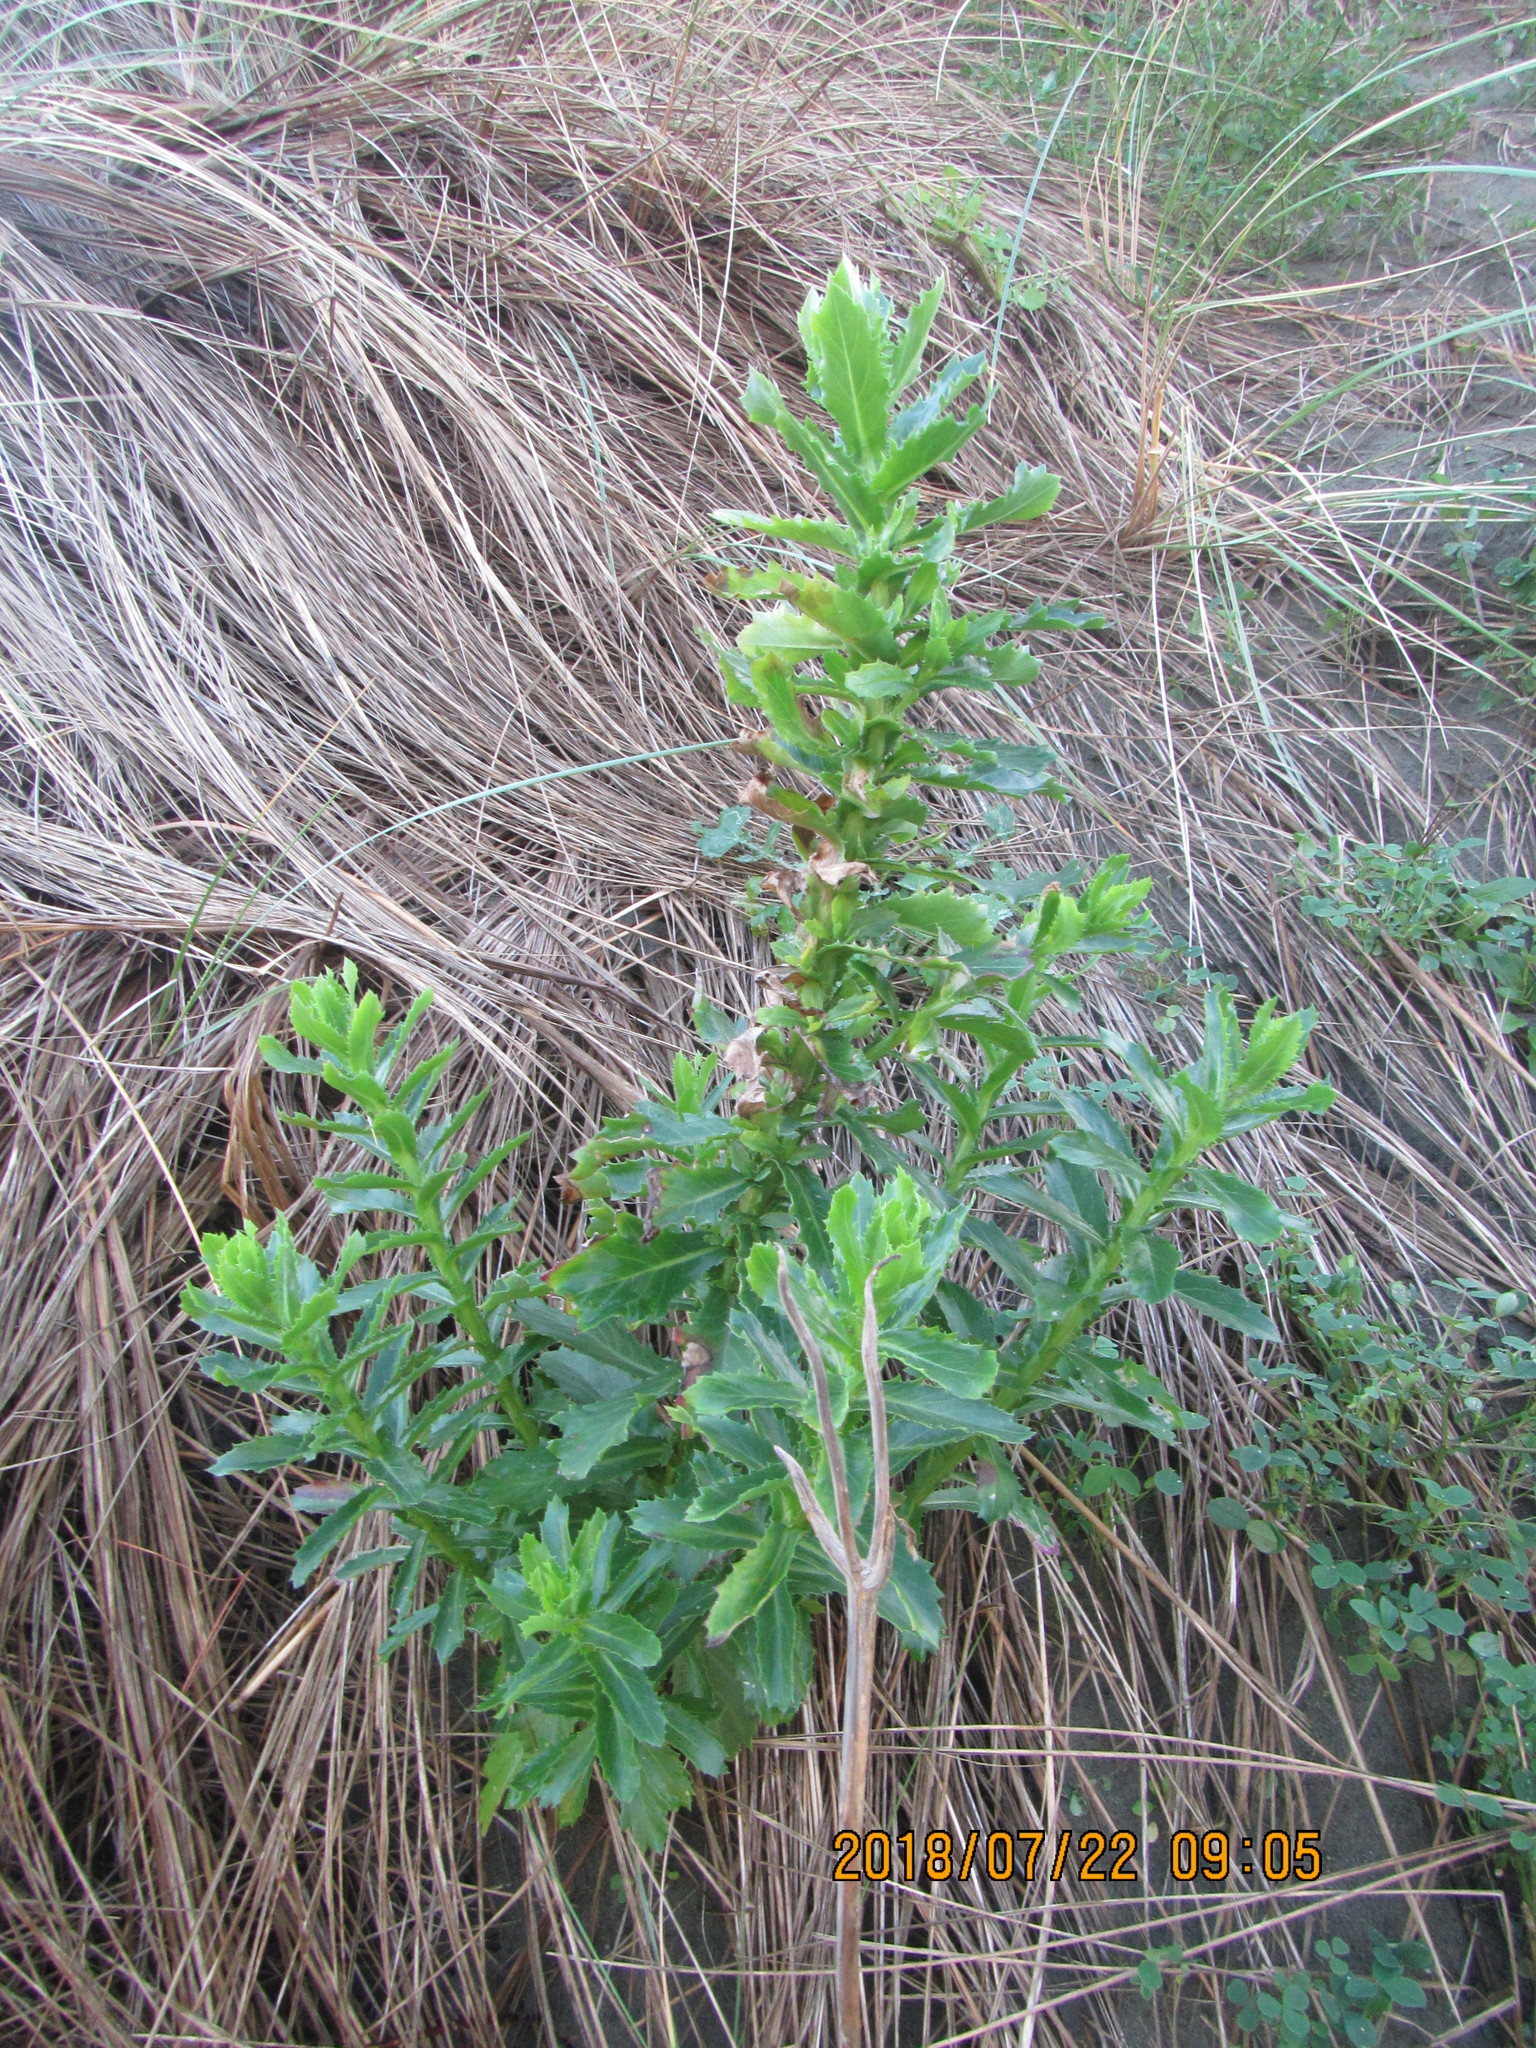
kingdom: Plantae
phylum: Tracheophyta
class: Magnoliopsida
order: Asterales
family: Asteraceae
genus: Senecio
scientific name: Senecio glastifolius
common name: Woad-leaved ragwort
